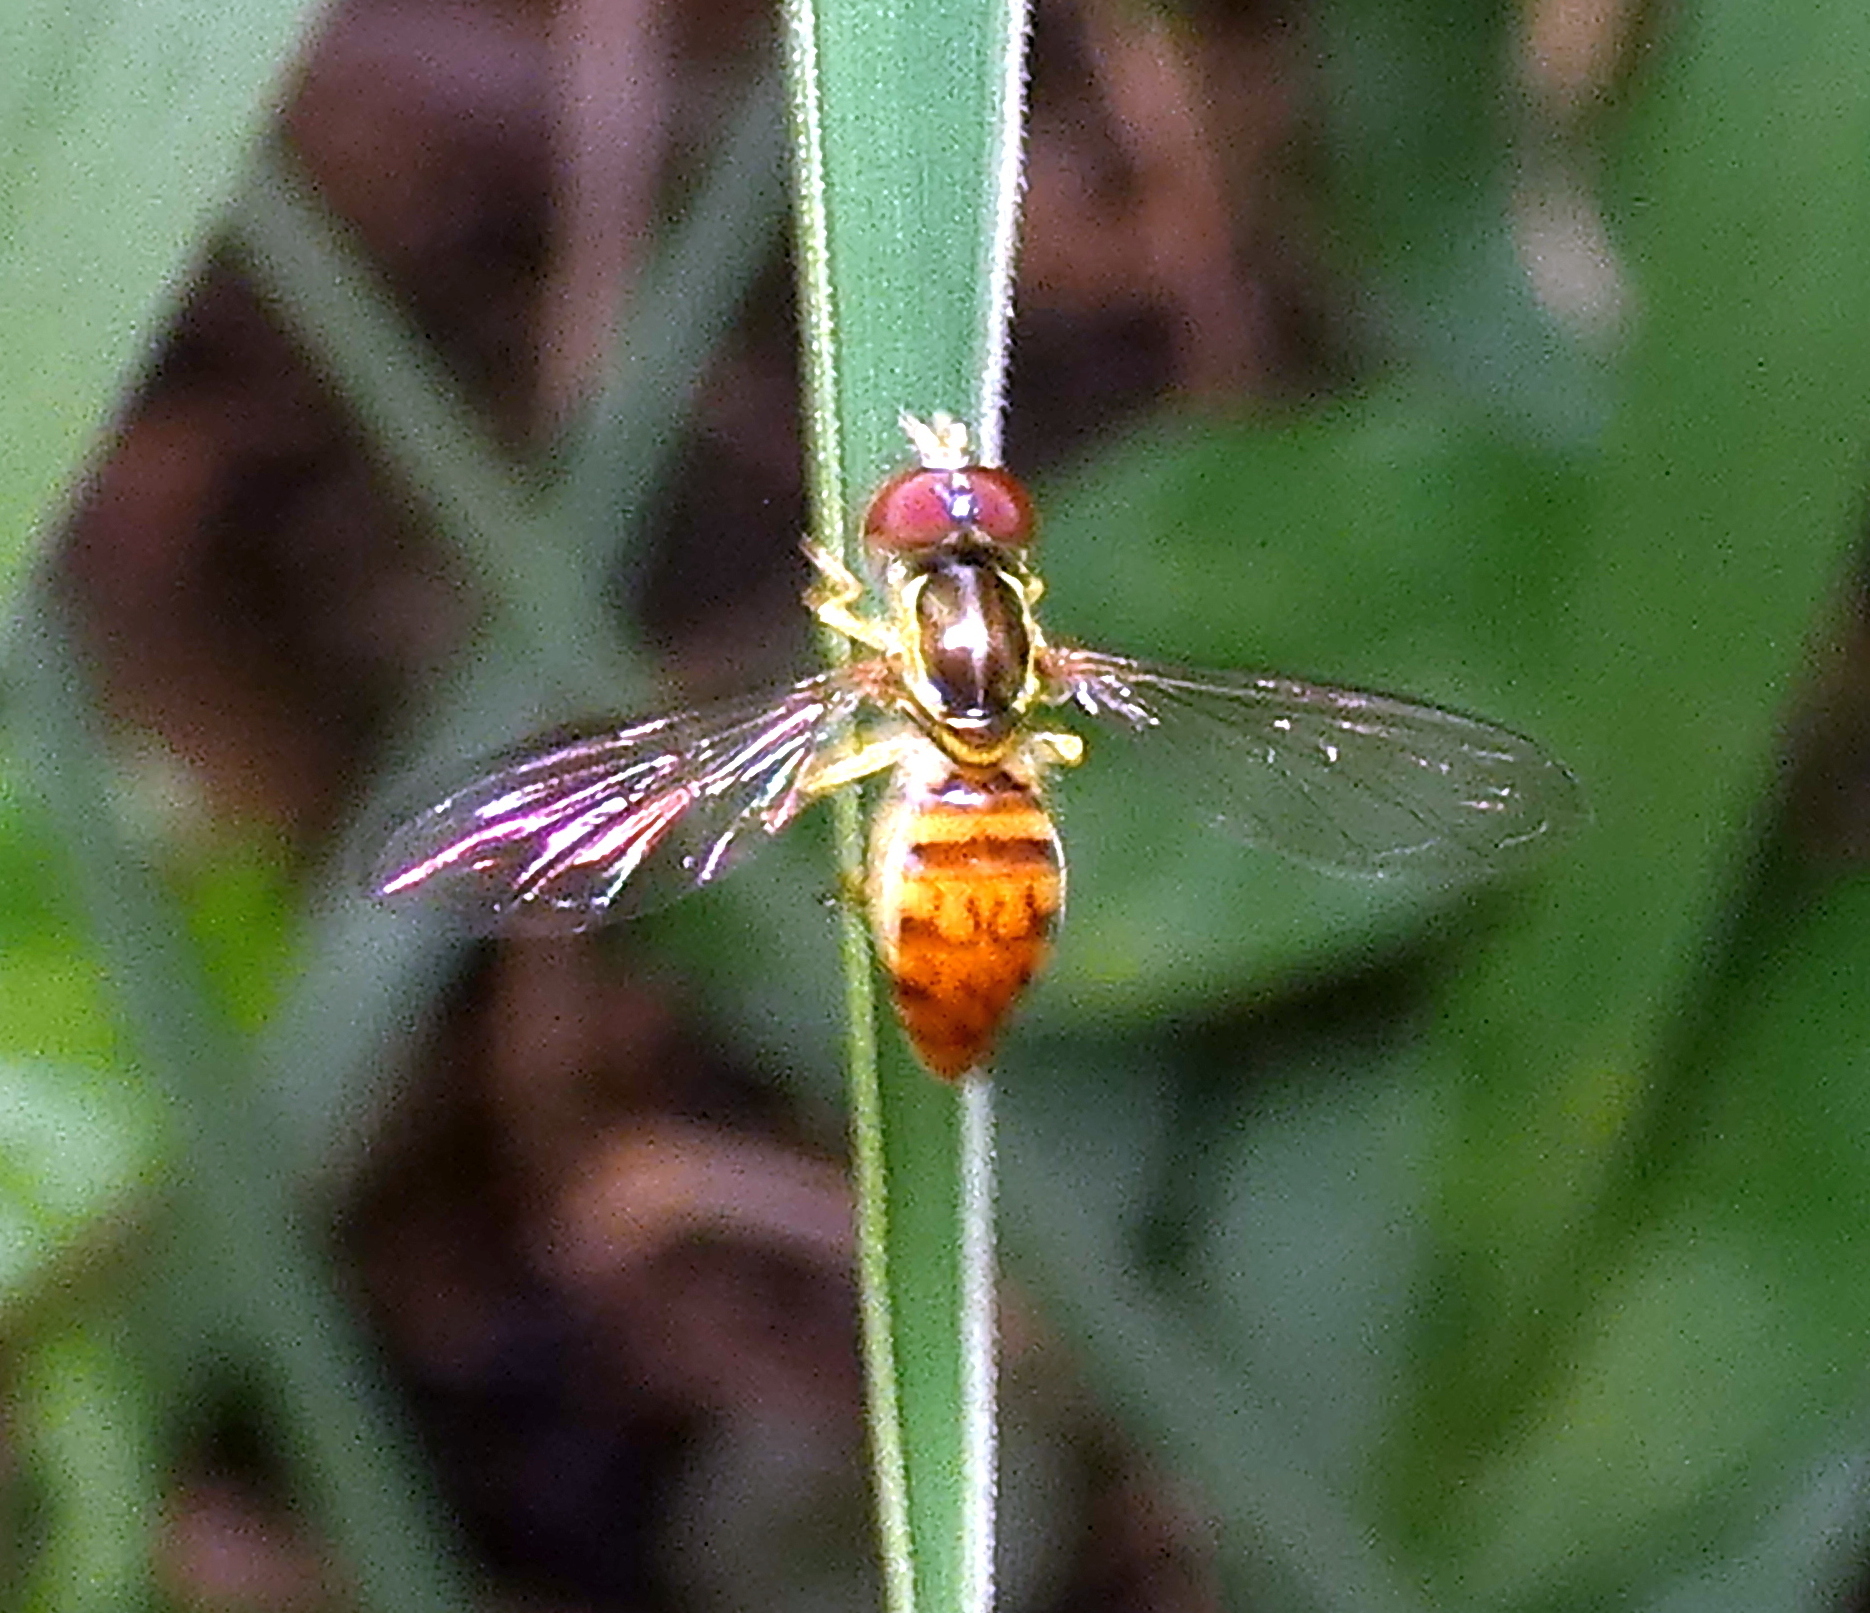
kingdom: Animalia
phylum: Arthropoda
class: Insecta
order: Diptera
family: Syrphidae
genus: Toxomerus
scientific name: Toxomerus pictus
